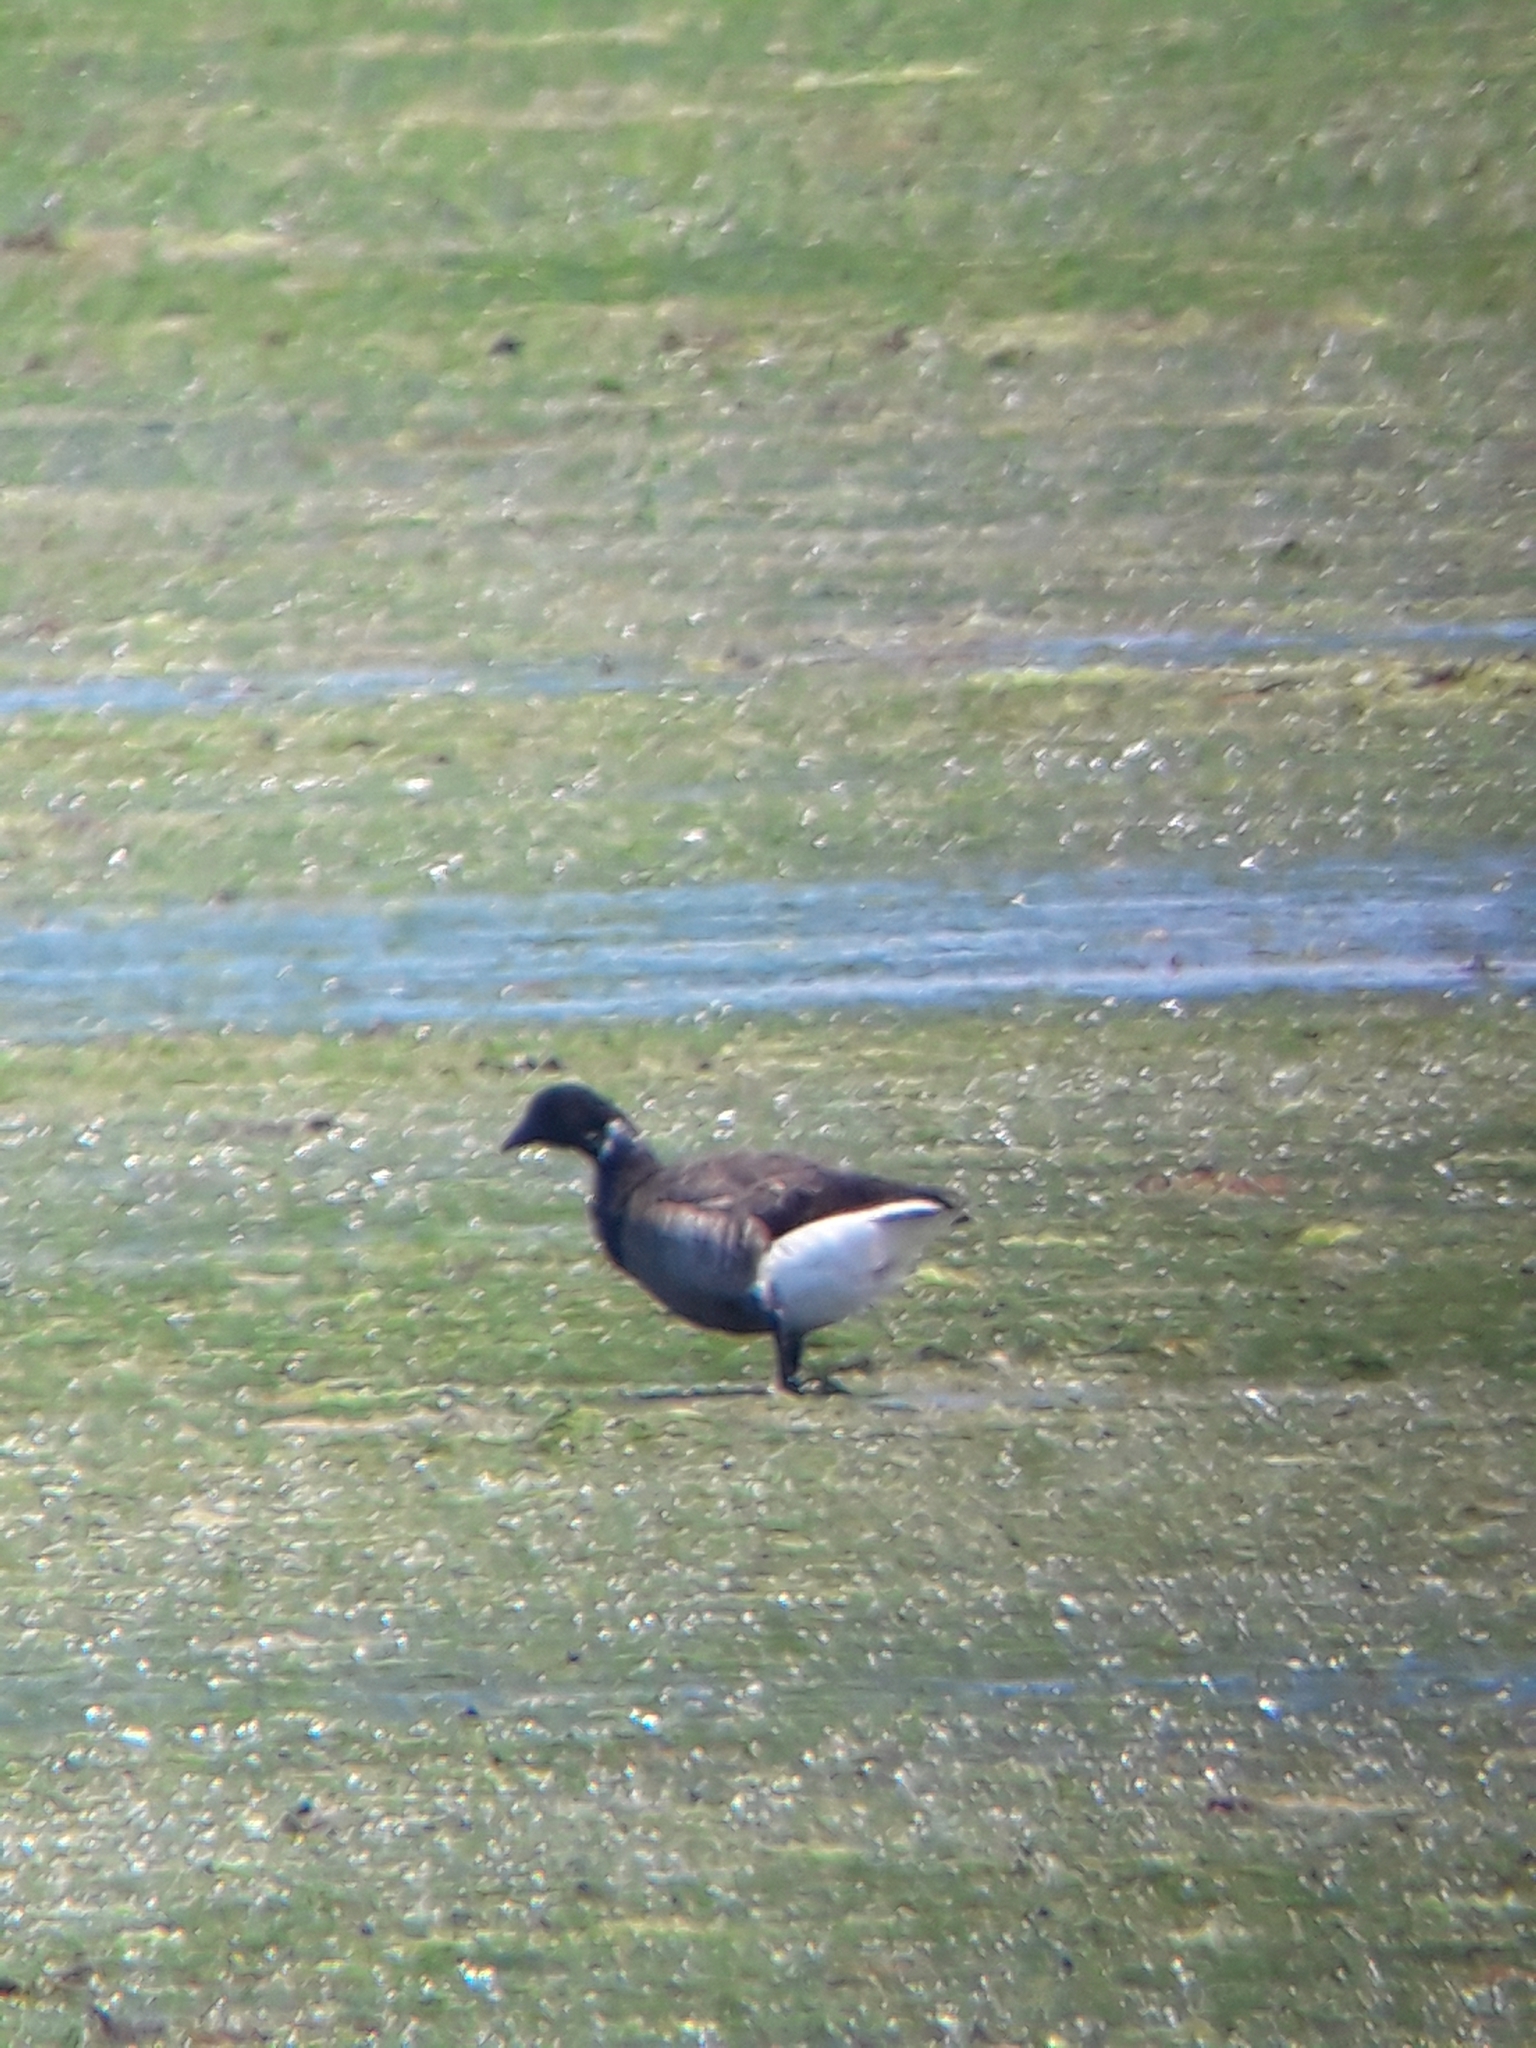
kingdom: Animalia
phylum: Chordata
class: Aves
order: Anseriformes
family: Anatidae
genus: Branta
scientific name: Branta bernicla
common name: Brant goose
